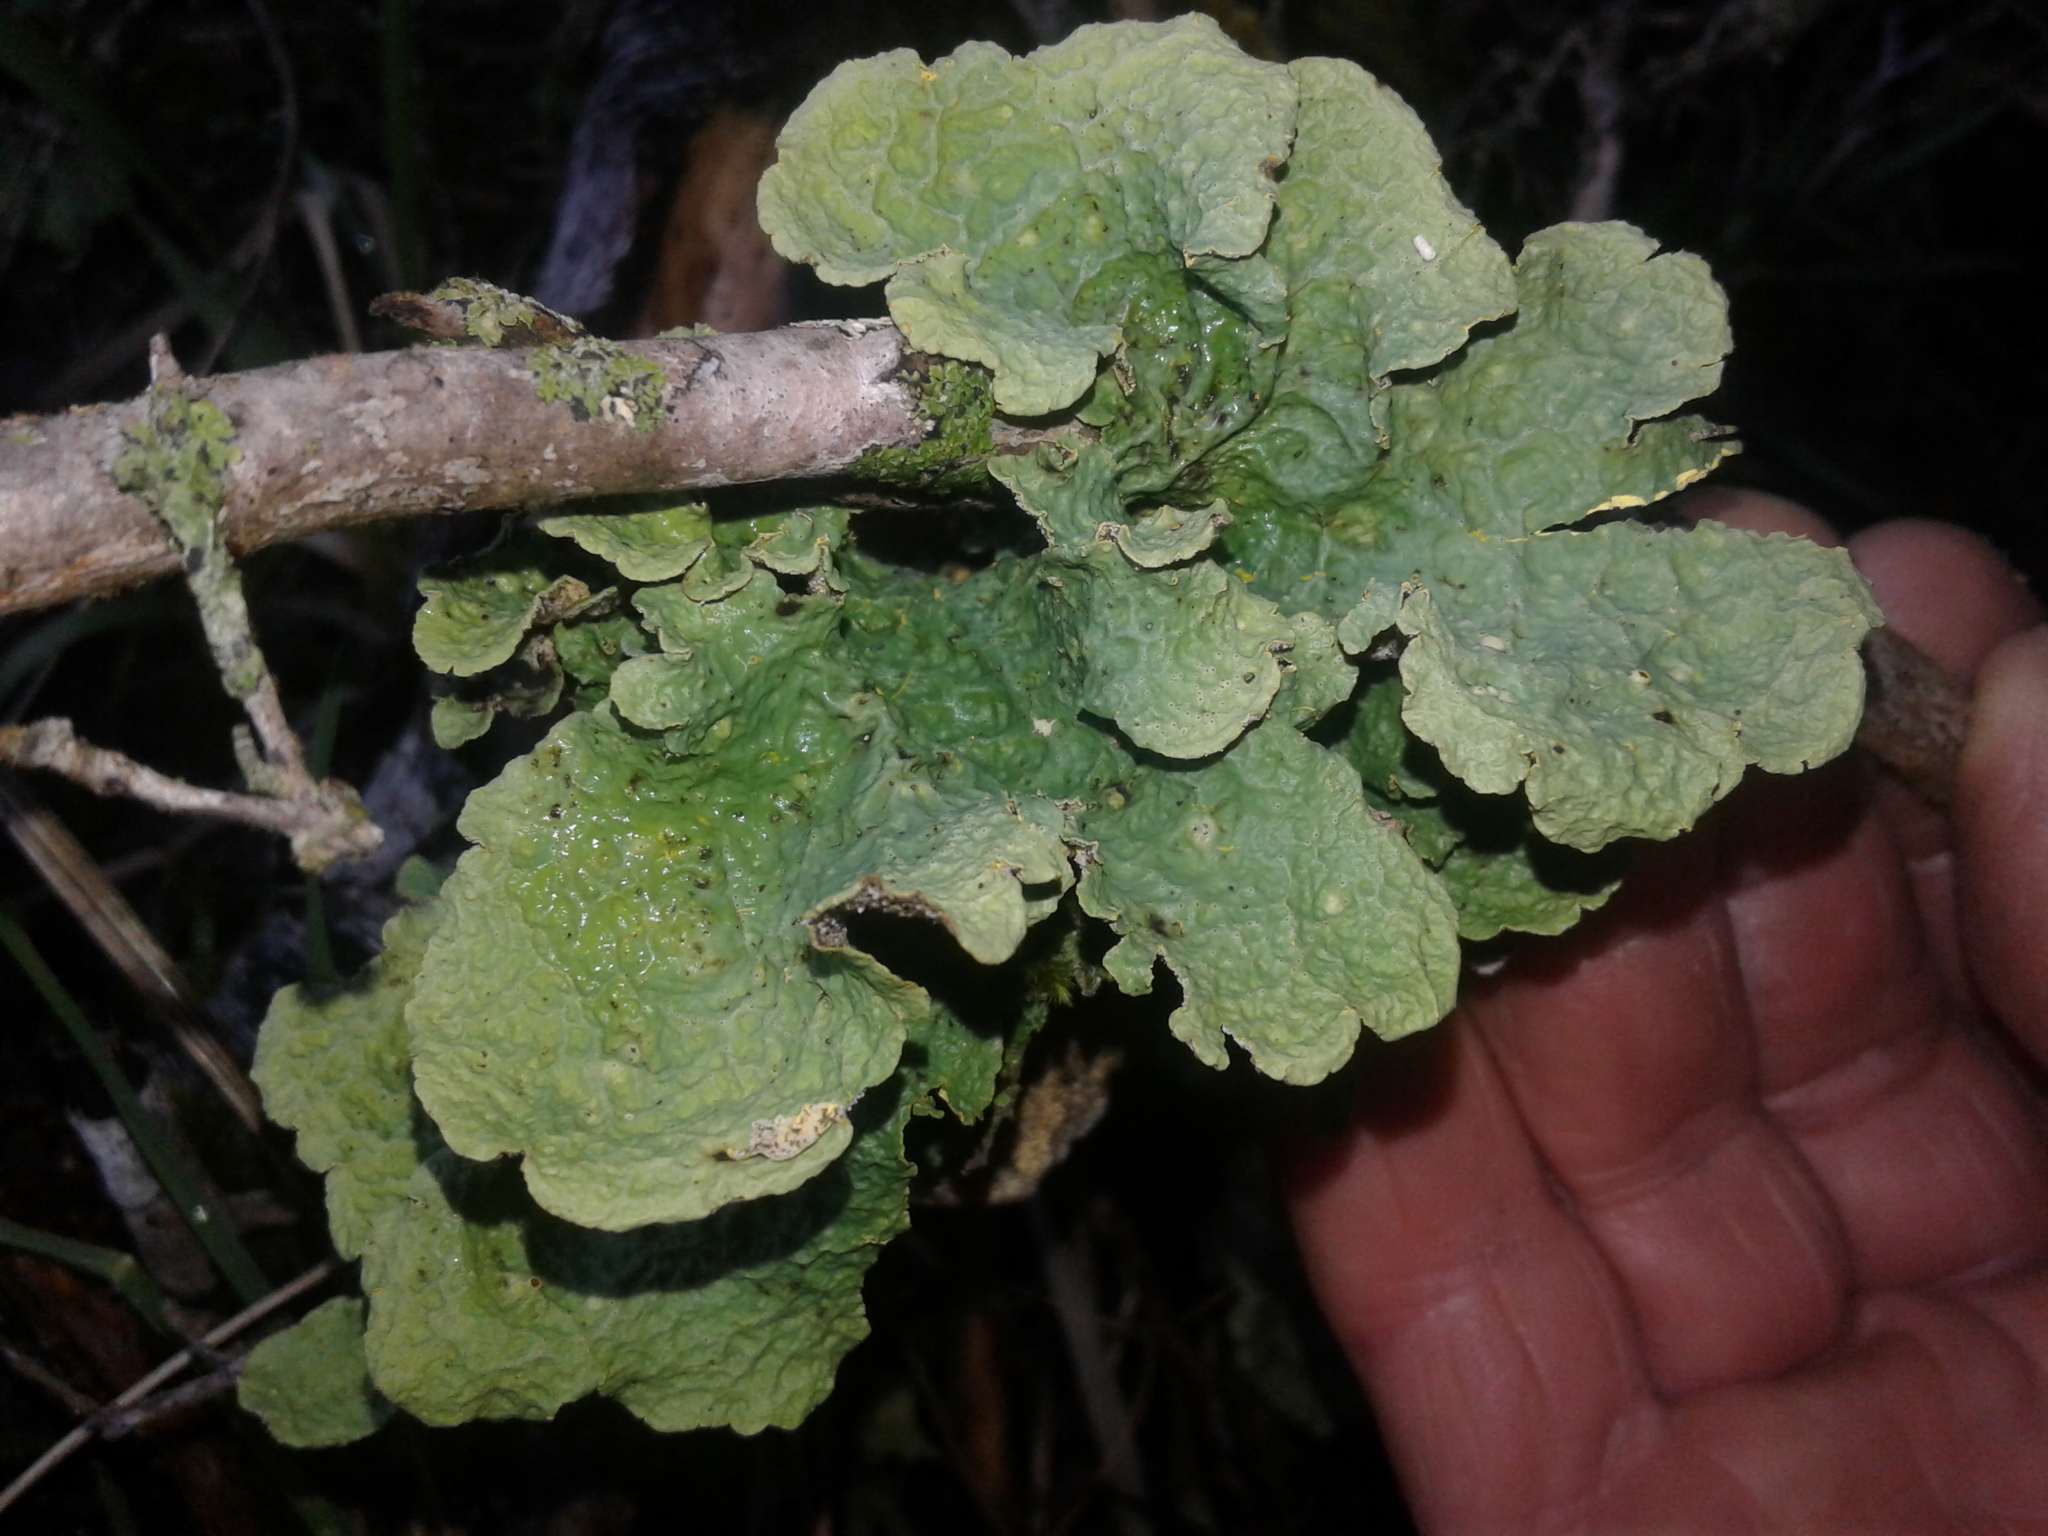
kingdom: Fungi
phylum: Ascomycota
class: Lecanoromycetes
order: Peltigerales
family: Lobariaceae
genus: Yarrumia
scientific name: Yarrumia colensoi
